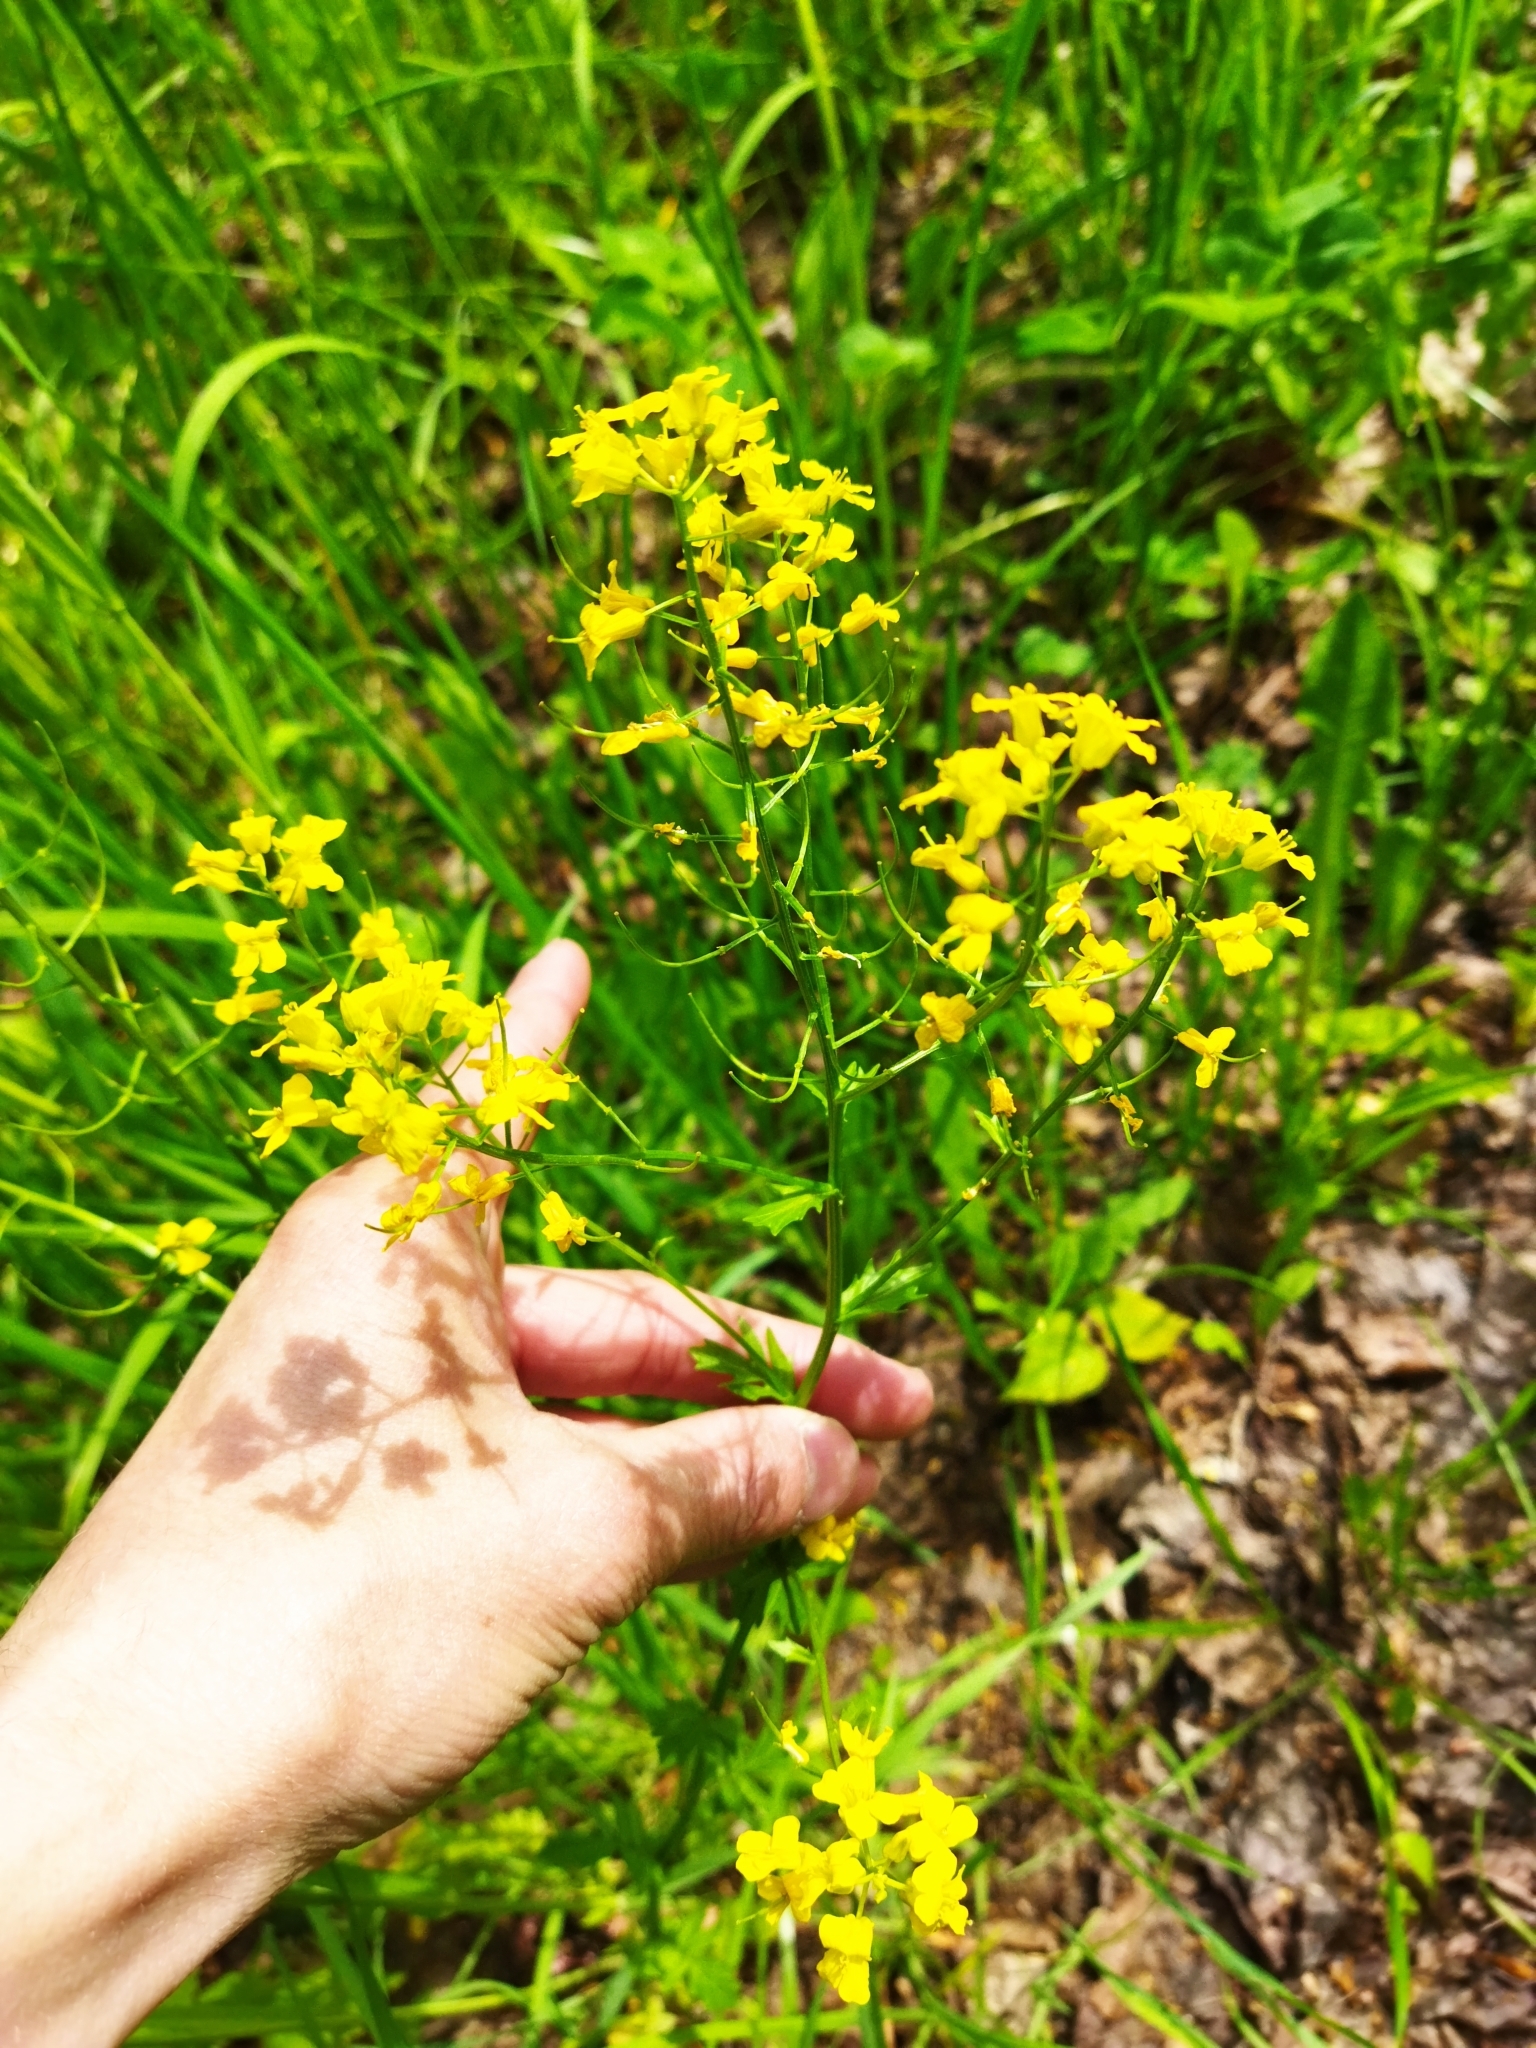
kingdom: Plantae
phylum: Tracheophyta
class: Magnoliopsida
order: Brassicales
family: Brassicaceae
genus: Barbarea
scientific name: Barbarea vulgaris
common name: Cressy-greens
